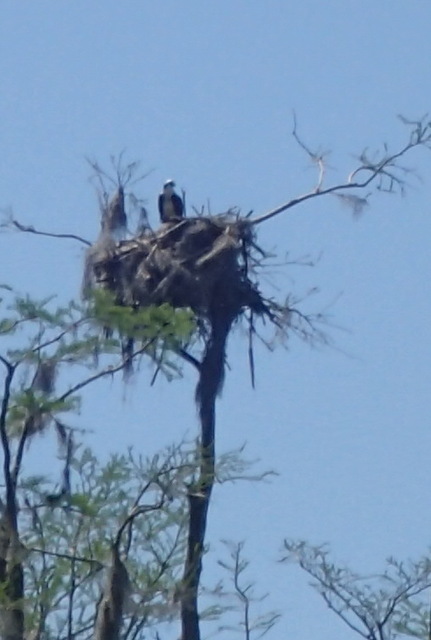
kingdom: Animalia
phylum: Chordata
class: Aves
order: Accipitriformes
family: Pandionidae
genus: Pandion
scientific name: Pandion haliaetus
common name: Osprey
